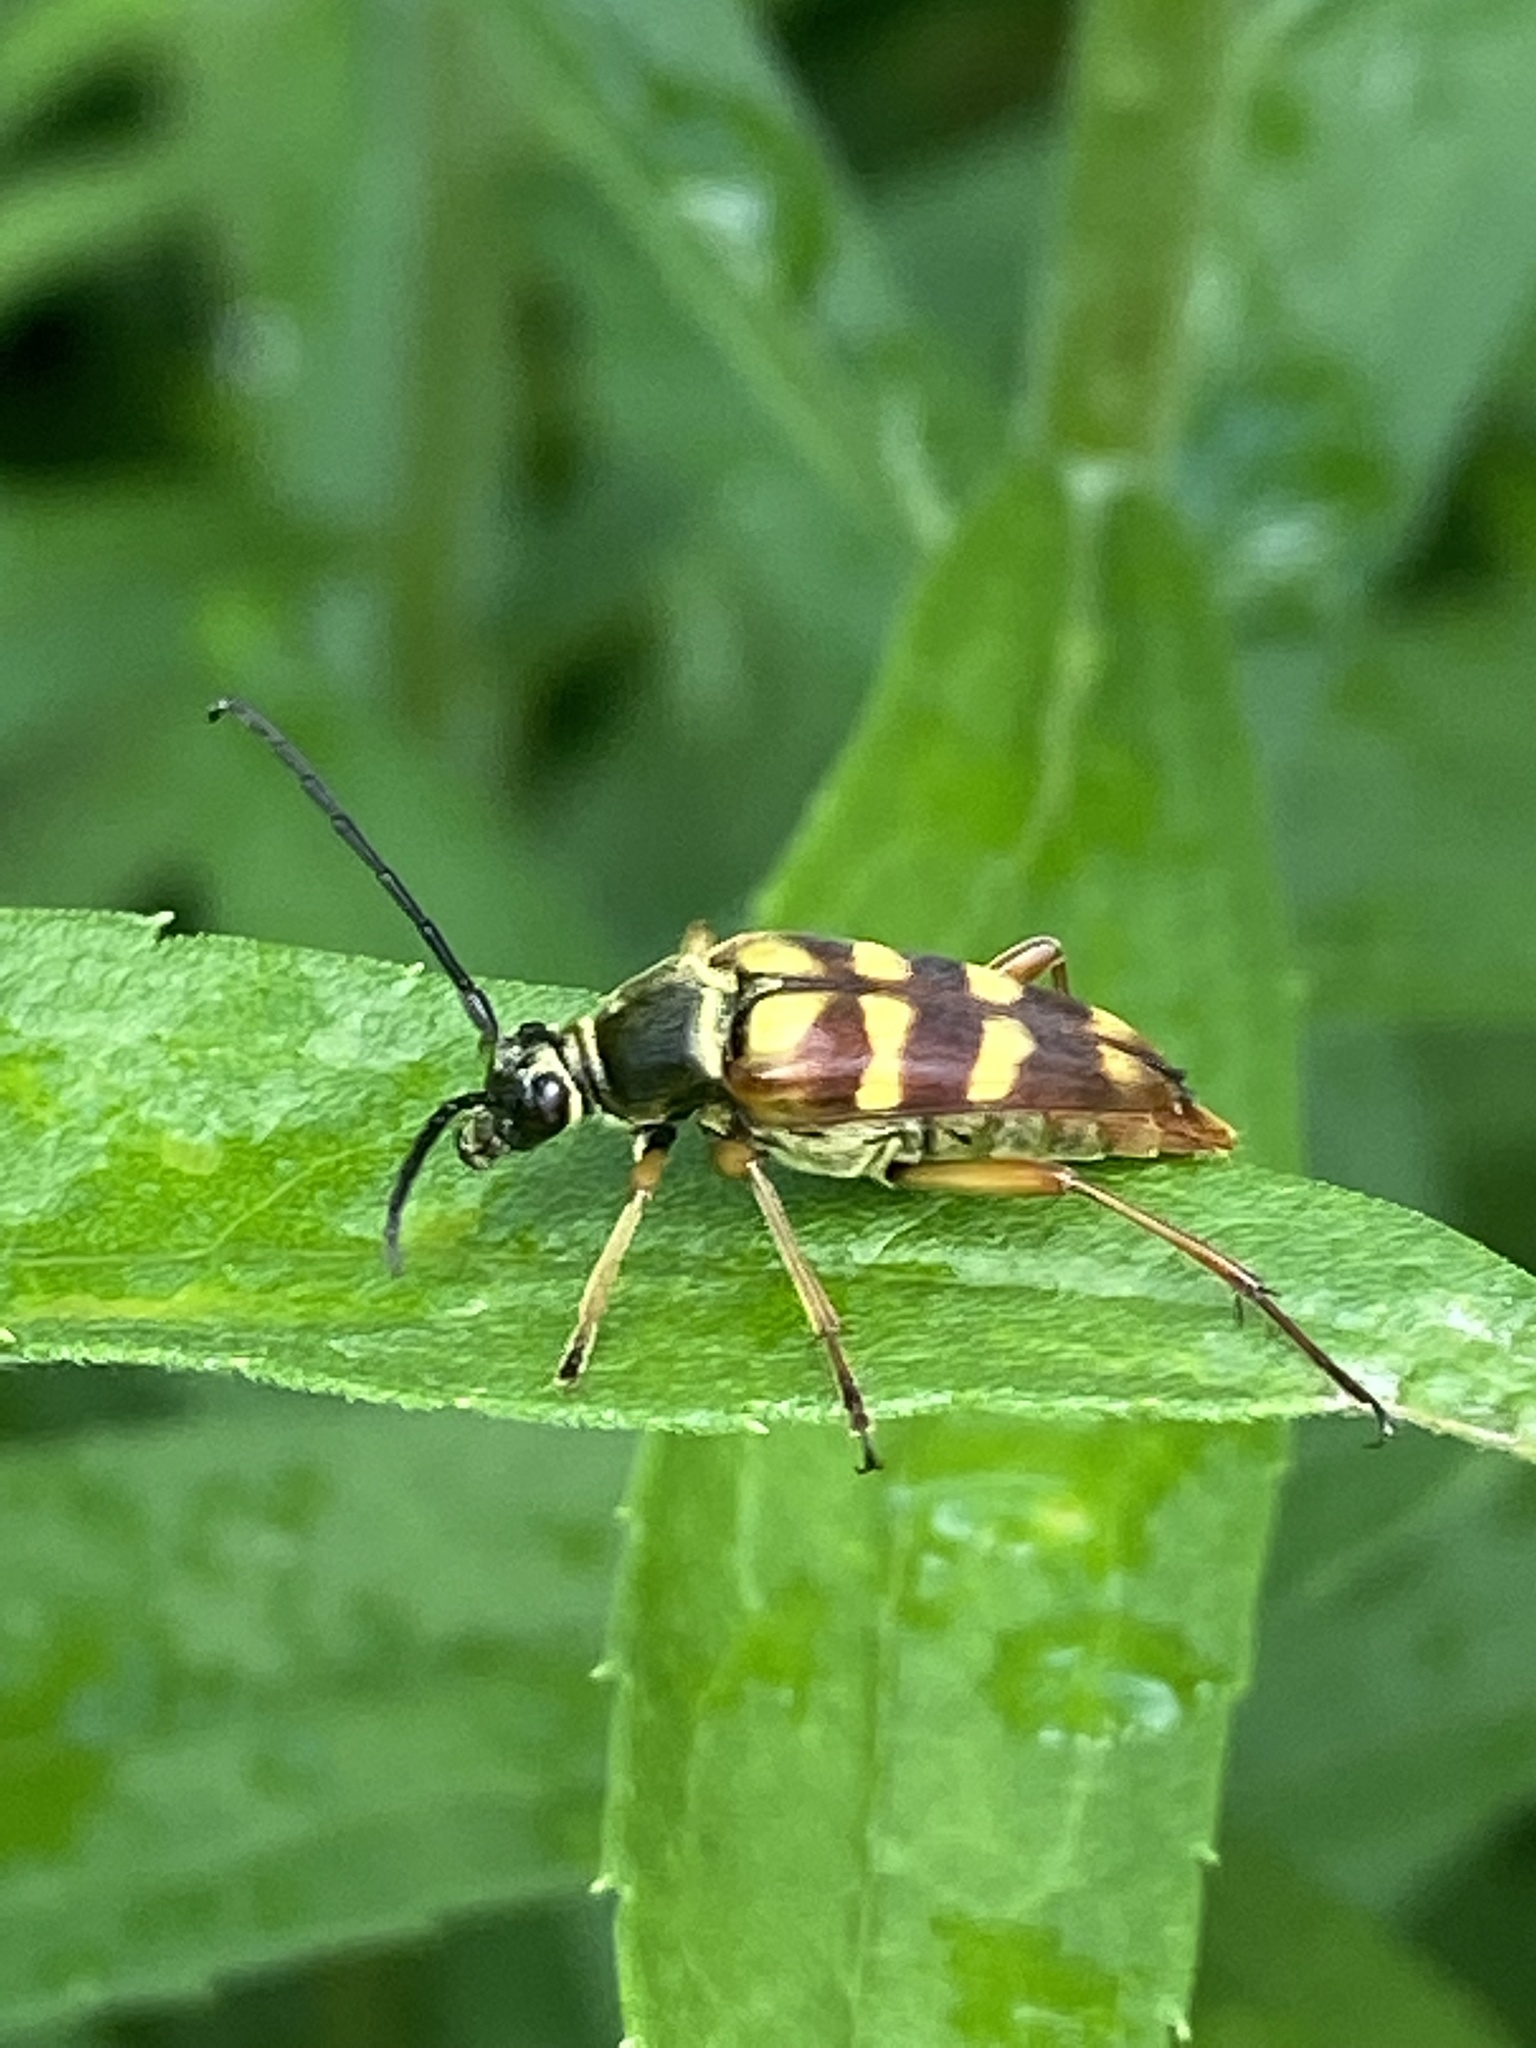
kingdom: Animalia
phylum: Arthropoda
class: Insecta
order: Coleoptera
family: Cerambycidae
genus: Typocerus
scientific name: Typocerus velutinus
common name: Banded longhorn beetle
